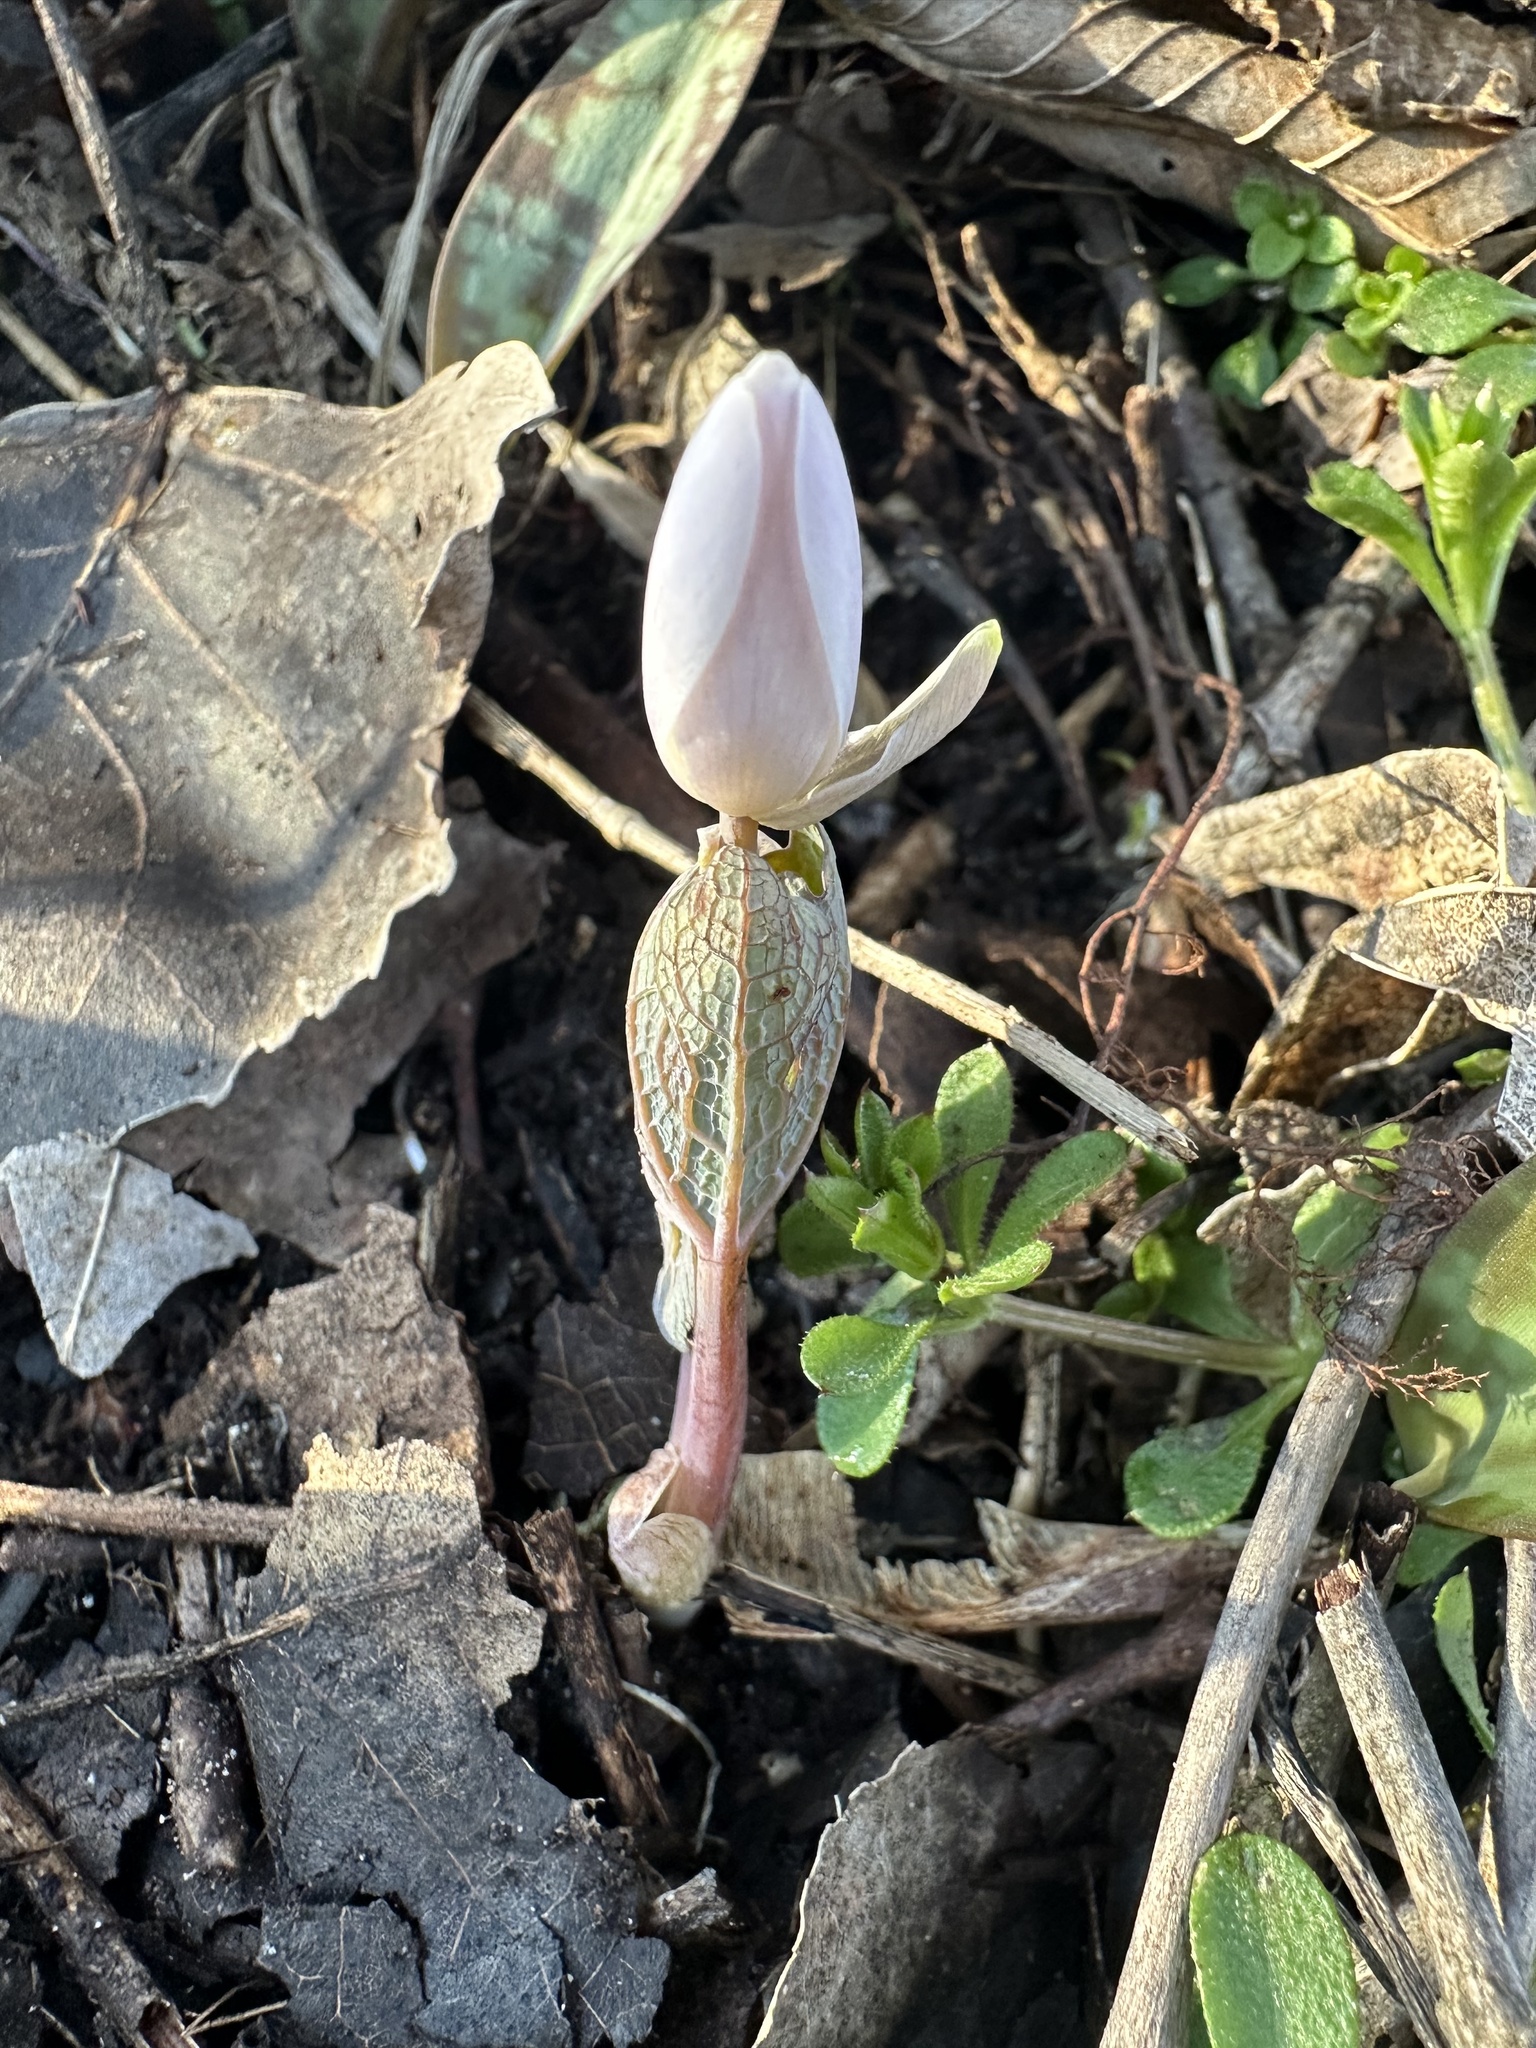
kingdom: Plantae
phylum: Tracheophyta
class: Magnoliopsida
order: Ranunculales
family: Papaveraceae
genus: Sanguinaria
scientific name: Sanguinaria canadensis
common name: Bloodroot
